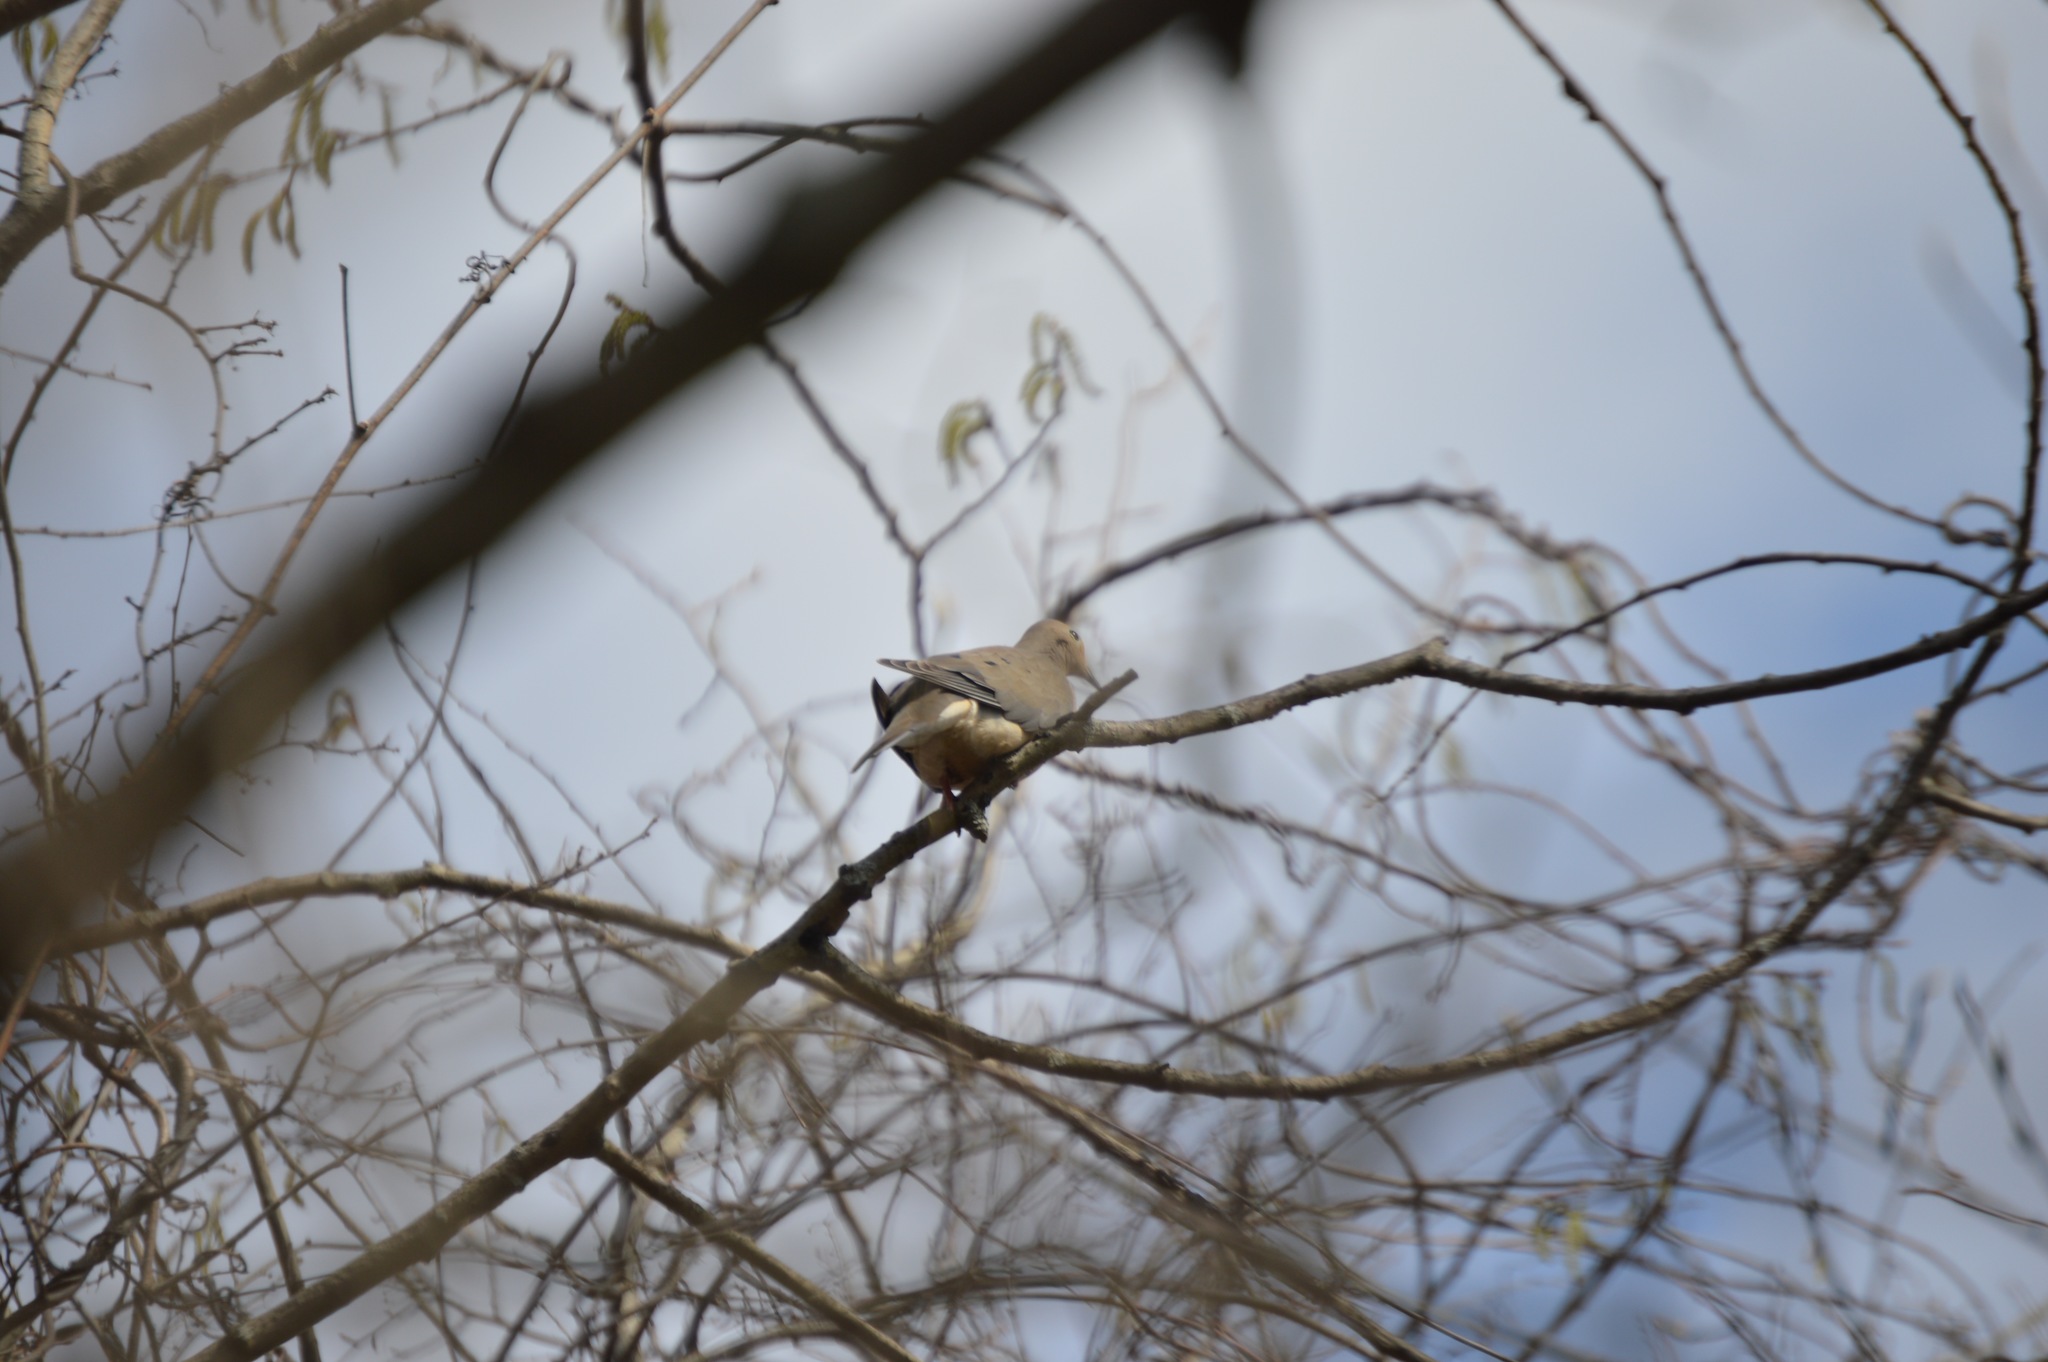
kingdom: Animalia
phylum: Chordata
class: Aves
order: Columbiformes
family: Columbidae
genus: Zenaida
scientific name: Zenaida macroura
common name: Mourning dove
